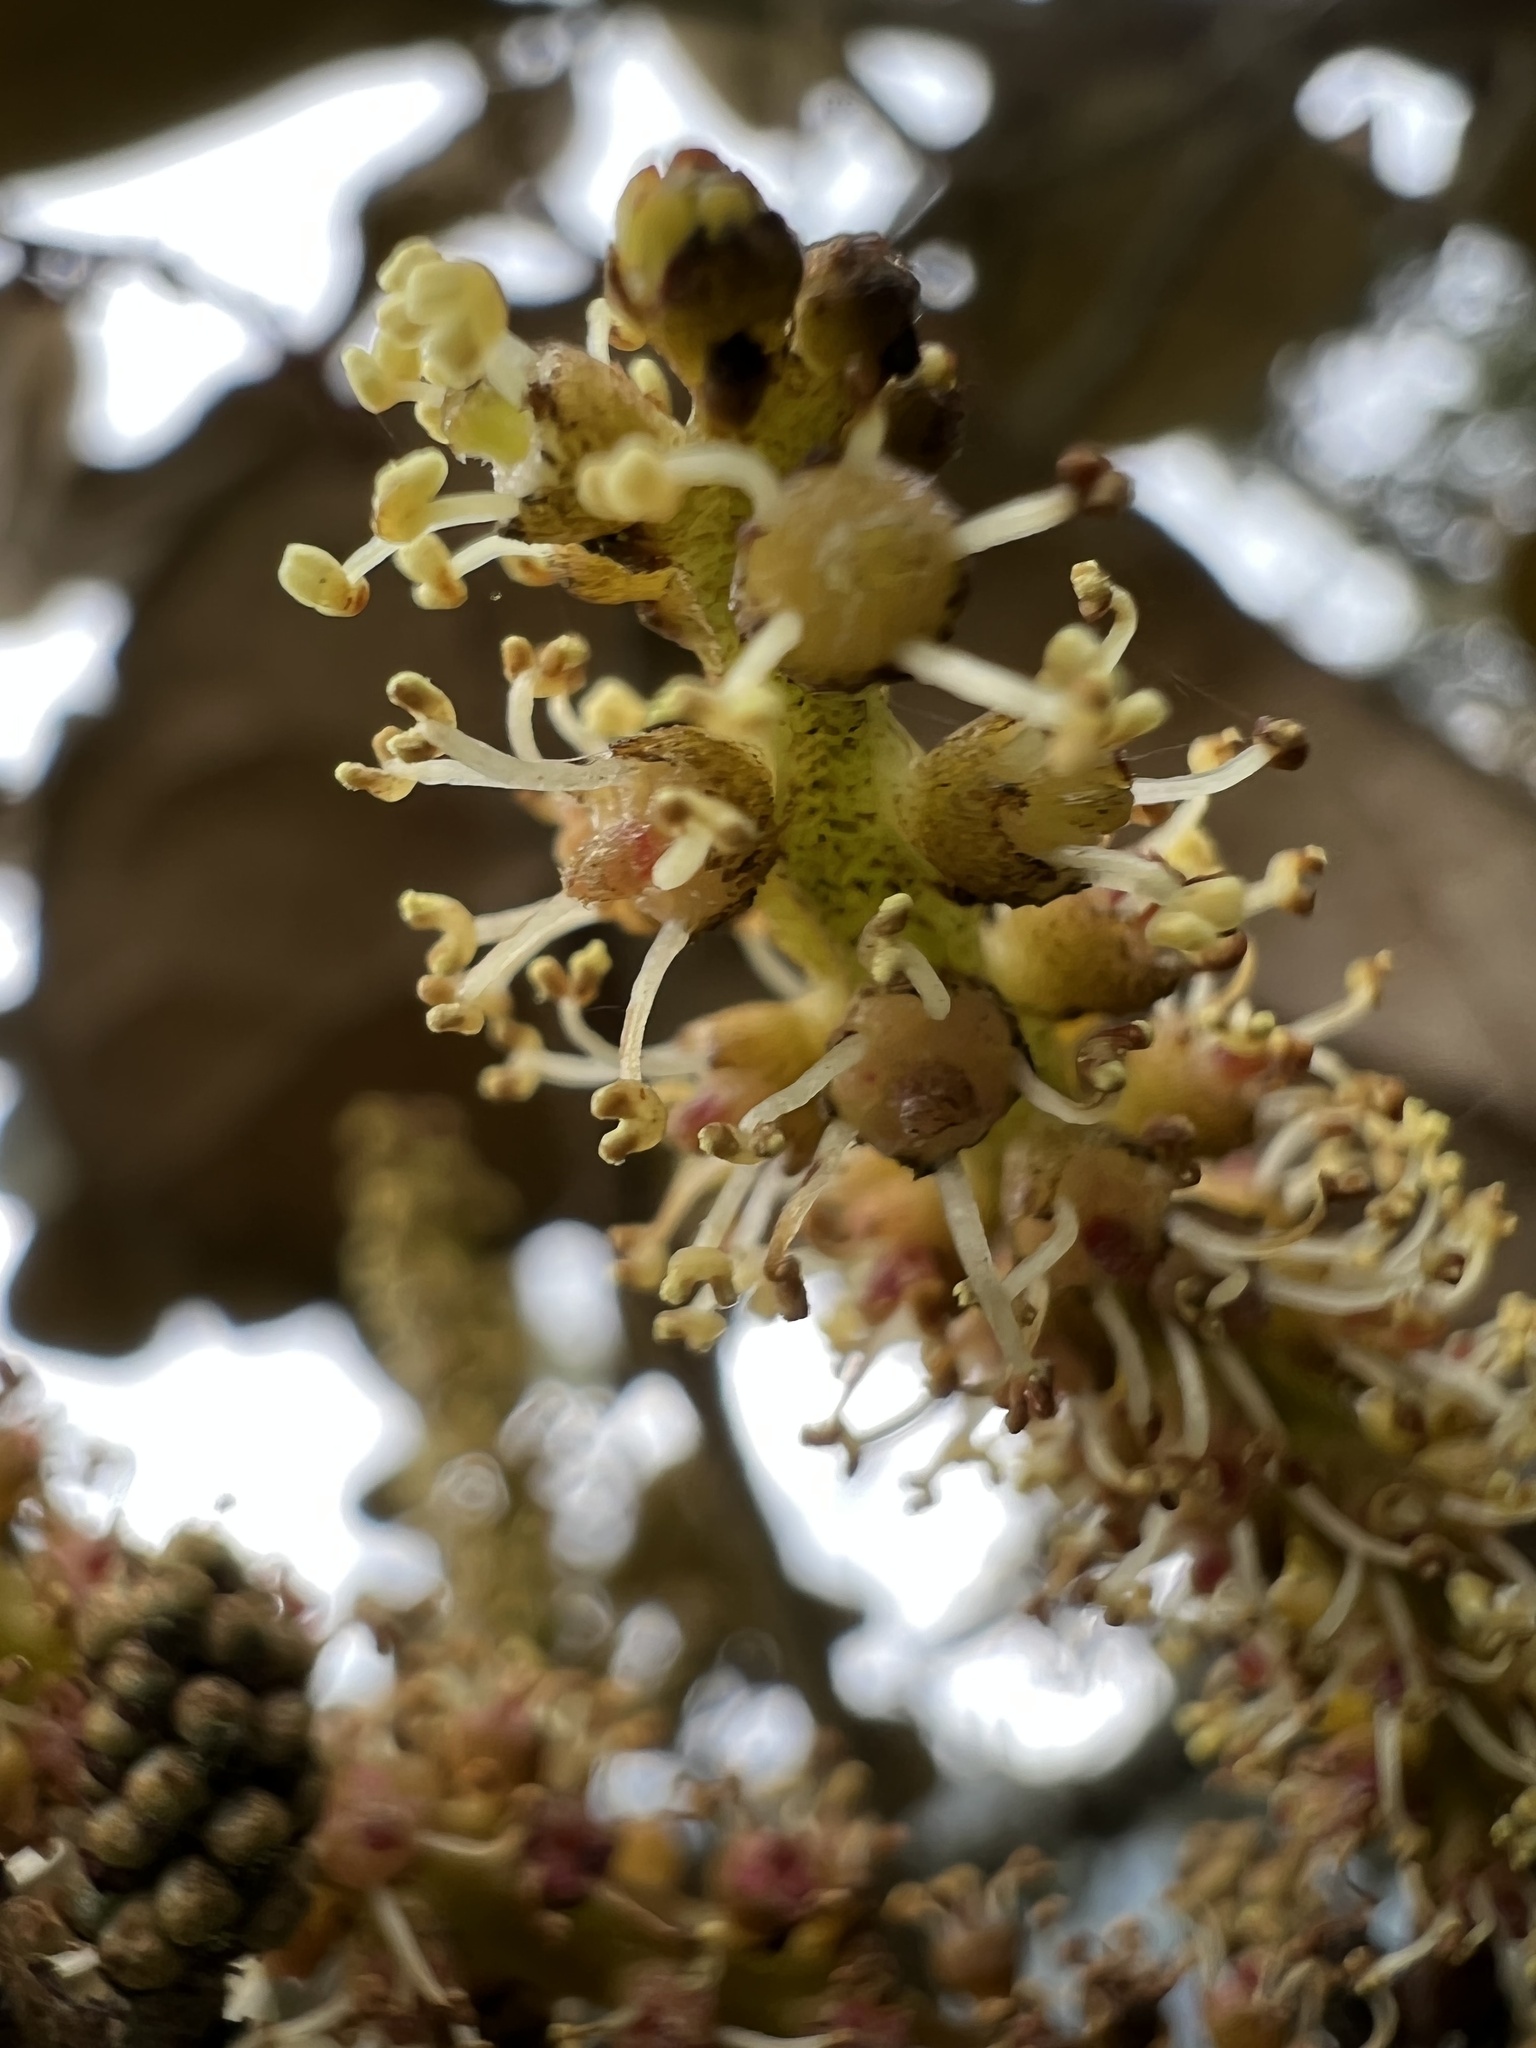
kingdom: Plantae
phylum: Tracheophyta
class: Magnoliopsida
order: Malpighiales
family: Phyllanthaceae
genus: Hieronyma
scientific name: Hieronyma rufa
